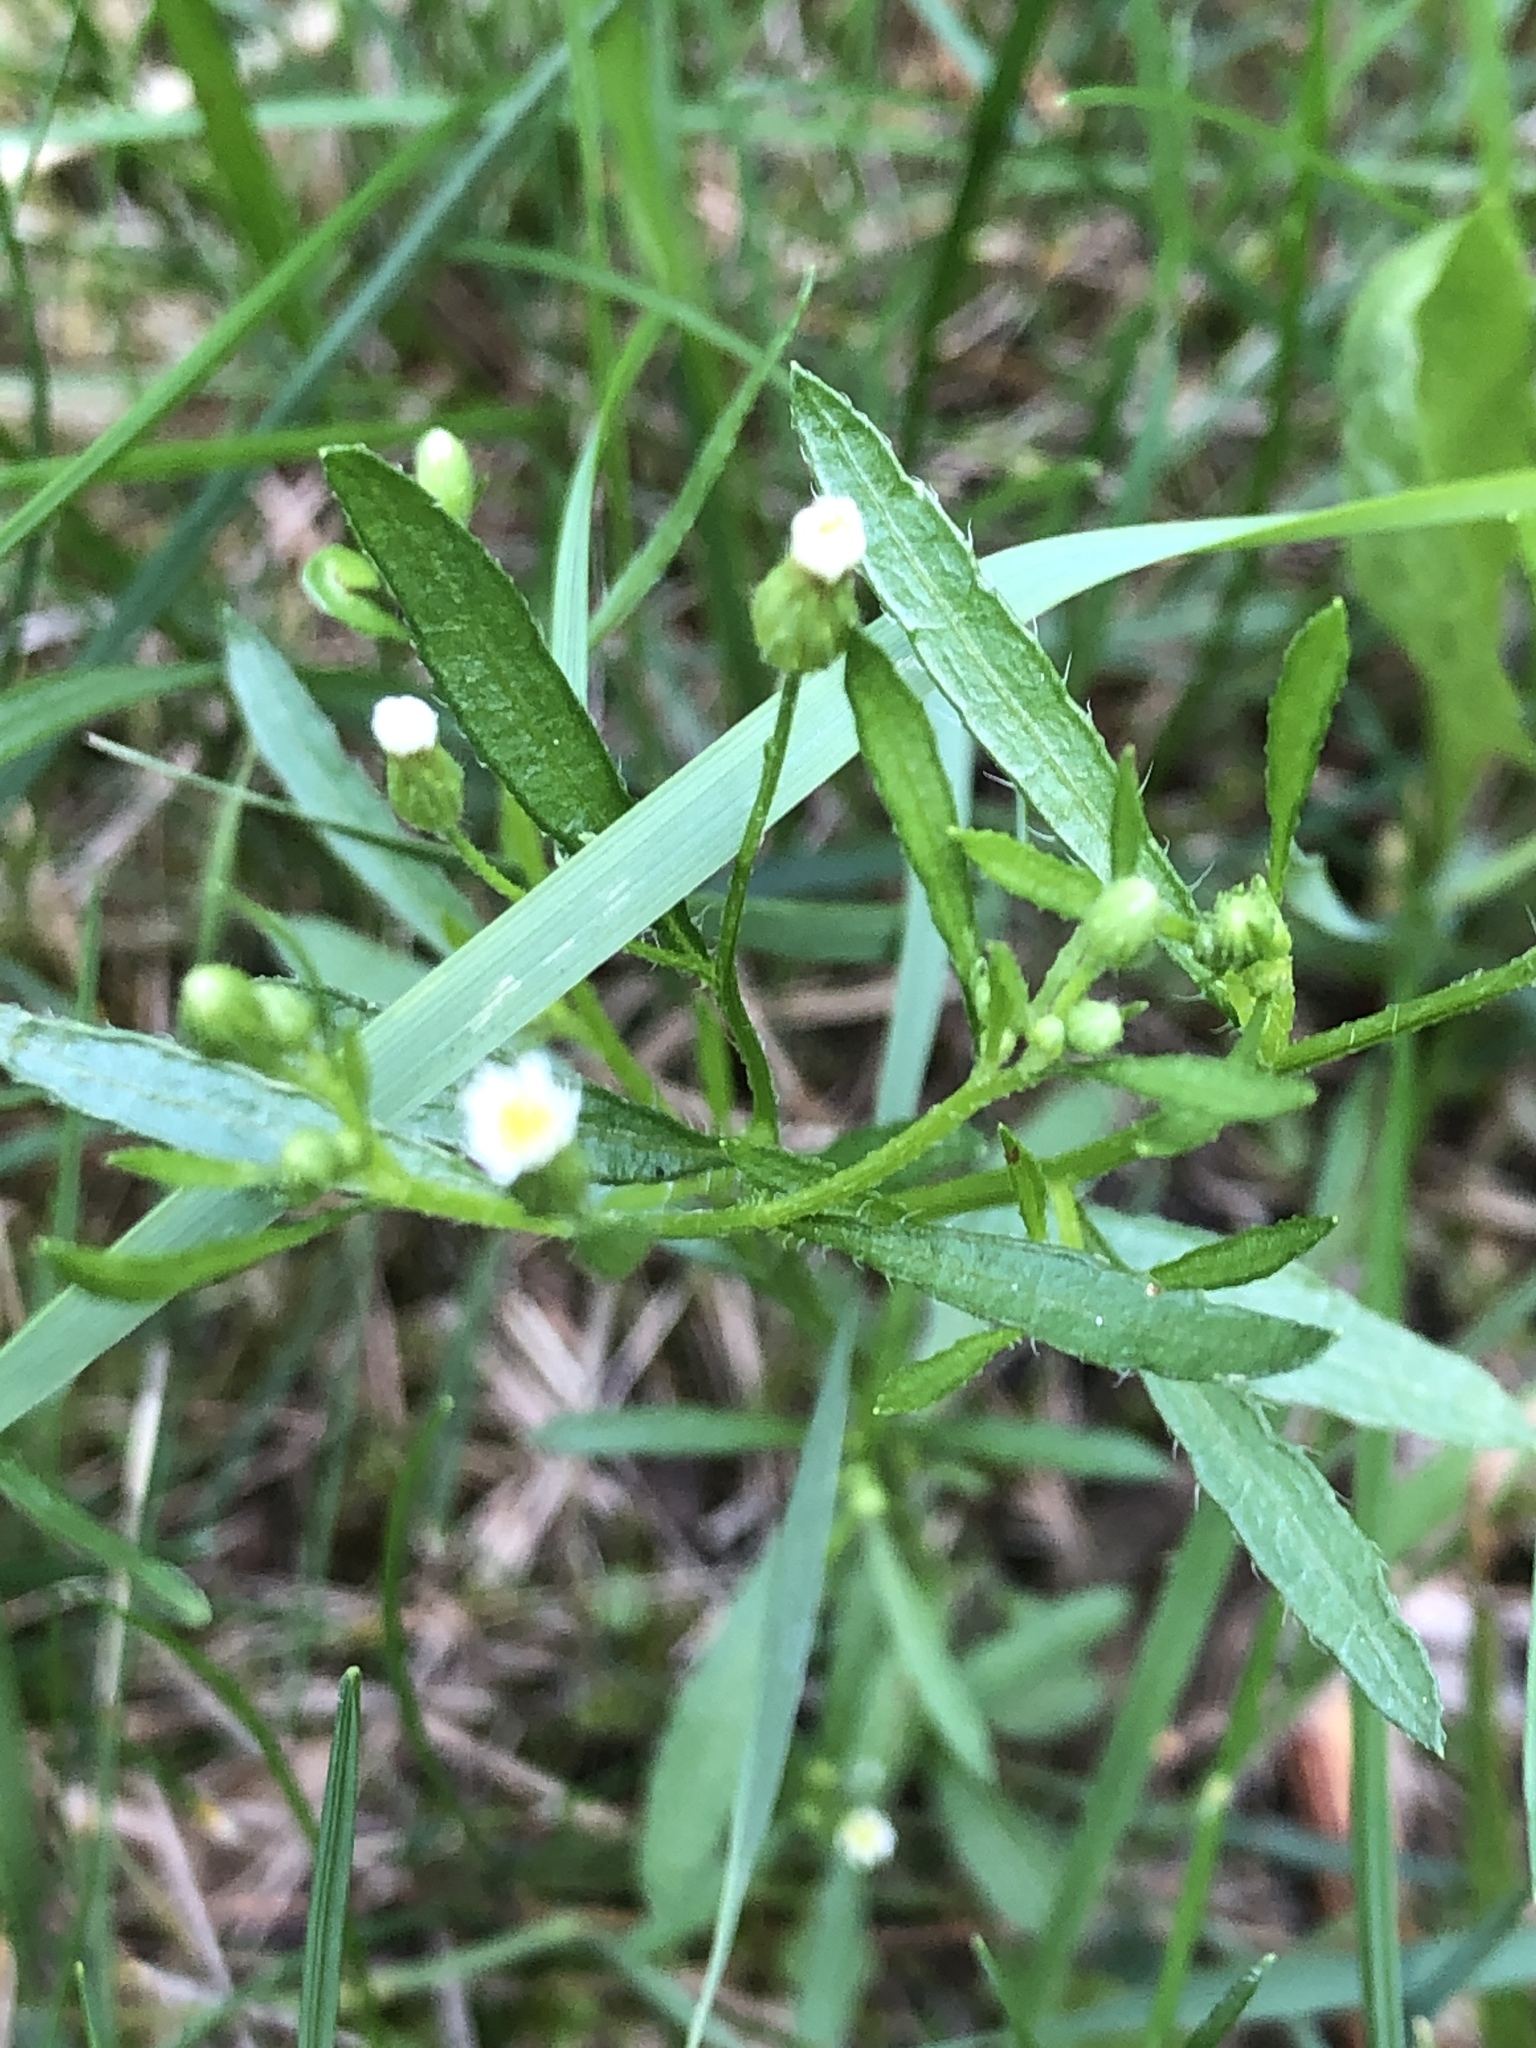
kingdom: Plantae
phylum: Tracheophyta
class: Magnoliopsida
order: Asterales
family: Asteraceae
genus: Erigeron
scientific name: Erigeron canadensis
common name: Canadian fleabane
